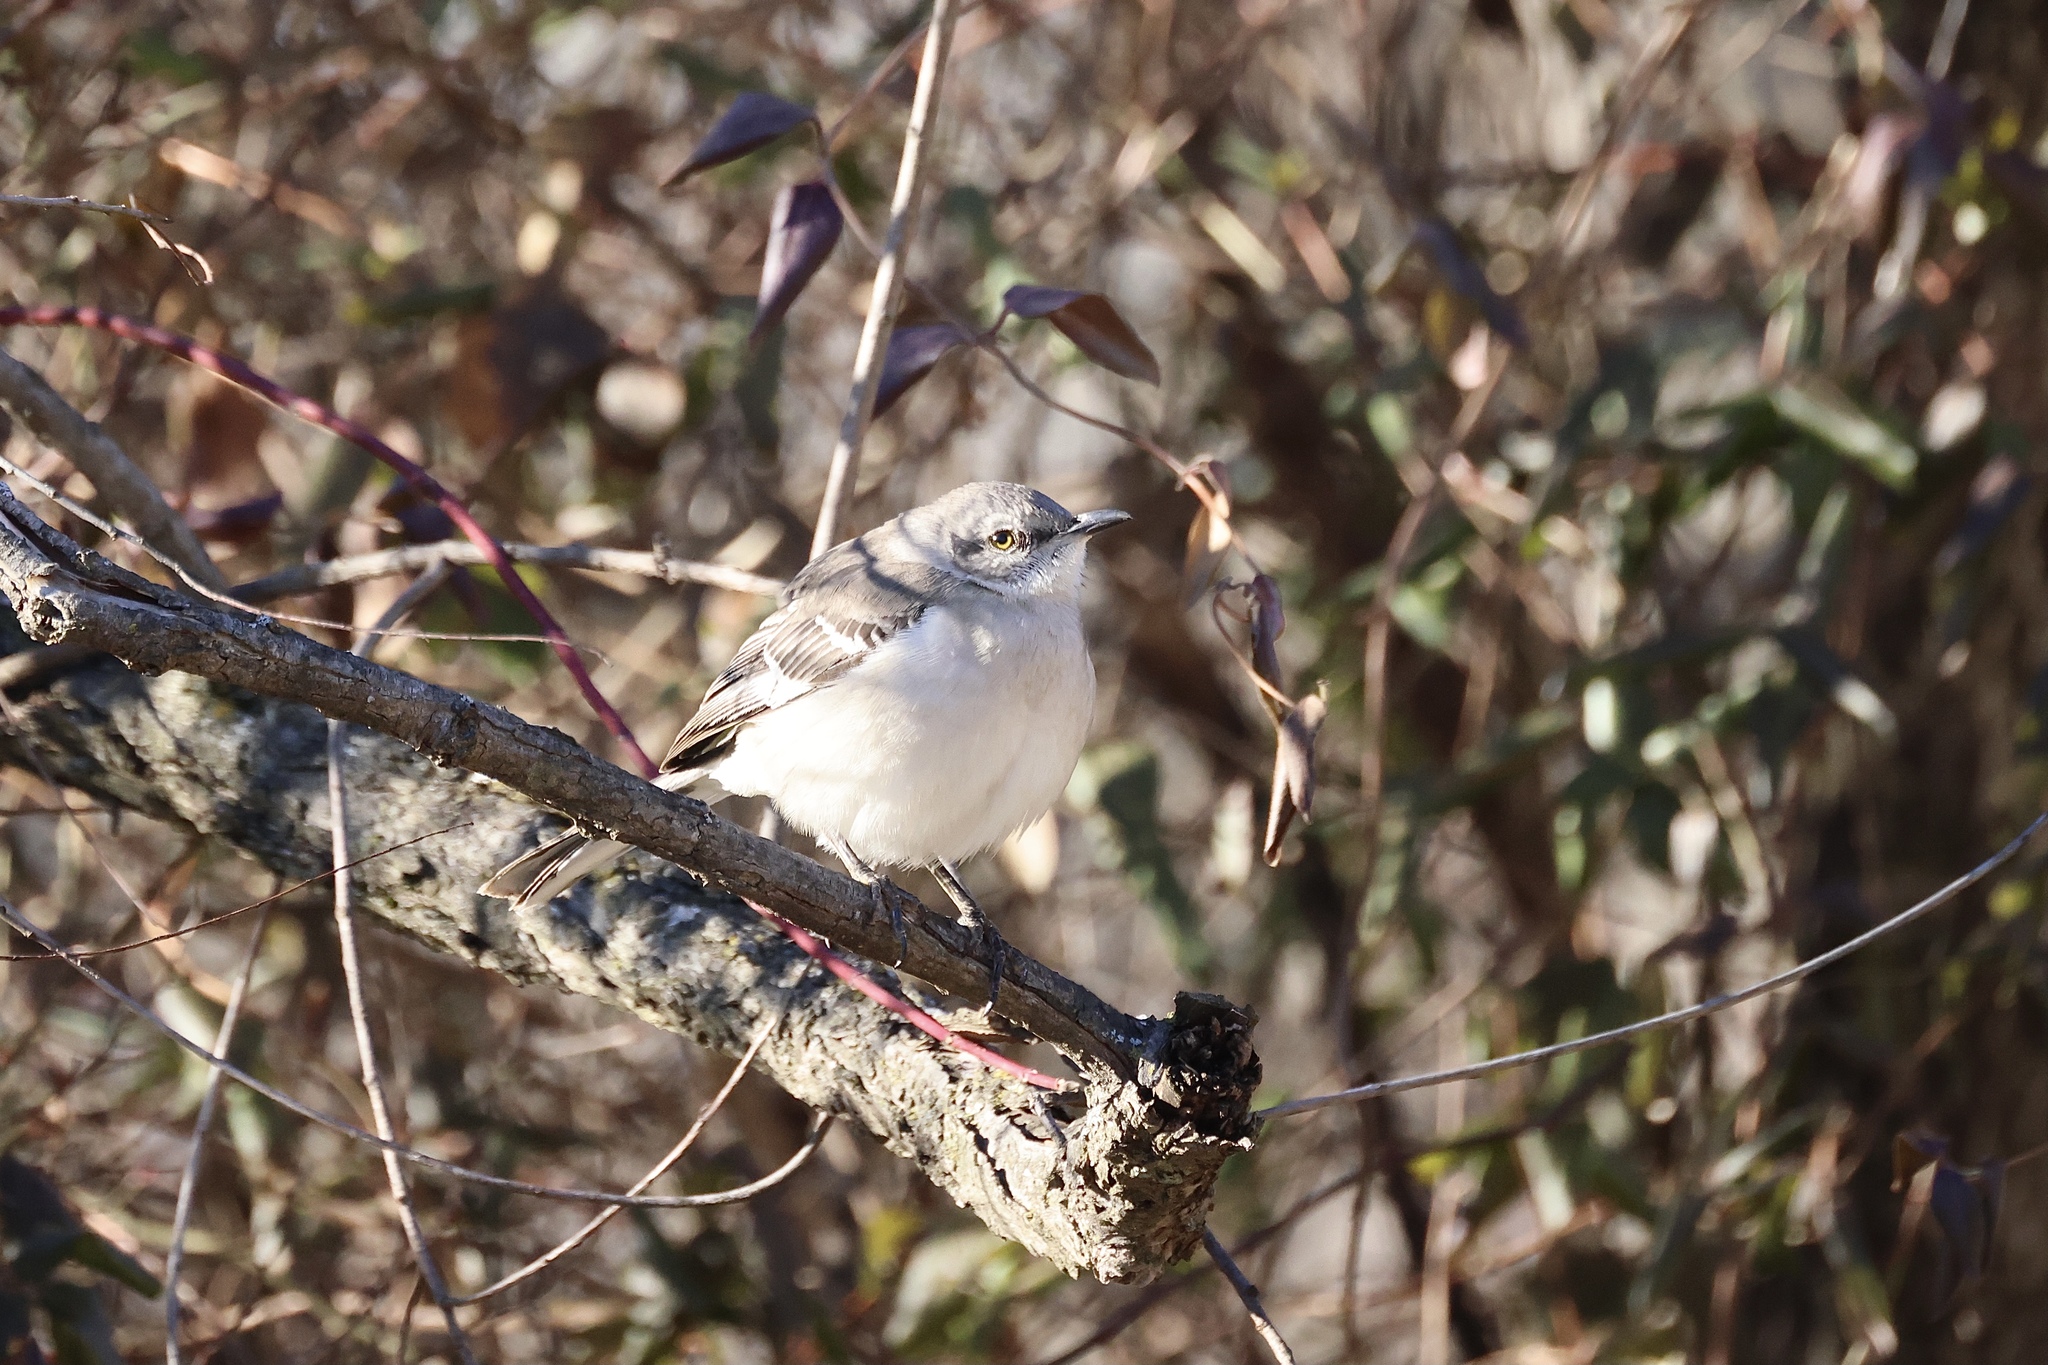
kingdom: Animalia
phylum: Chordata
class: Aves
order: Passeriformes
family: Mimidae
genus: Mimus
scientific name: Mimus polyglottos
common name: Northern mockingbird
